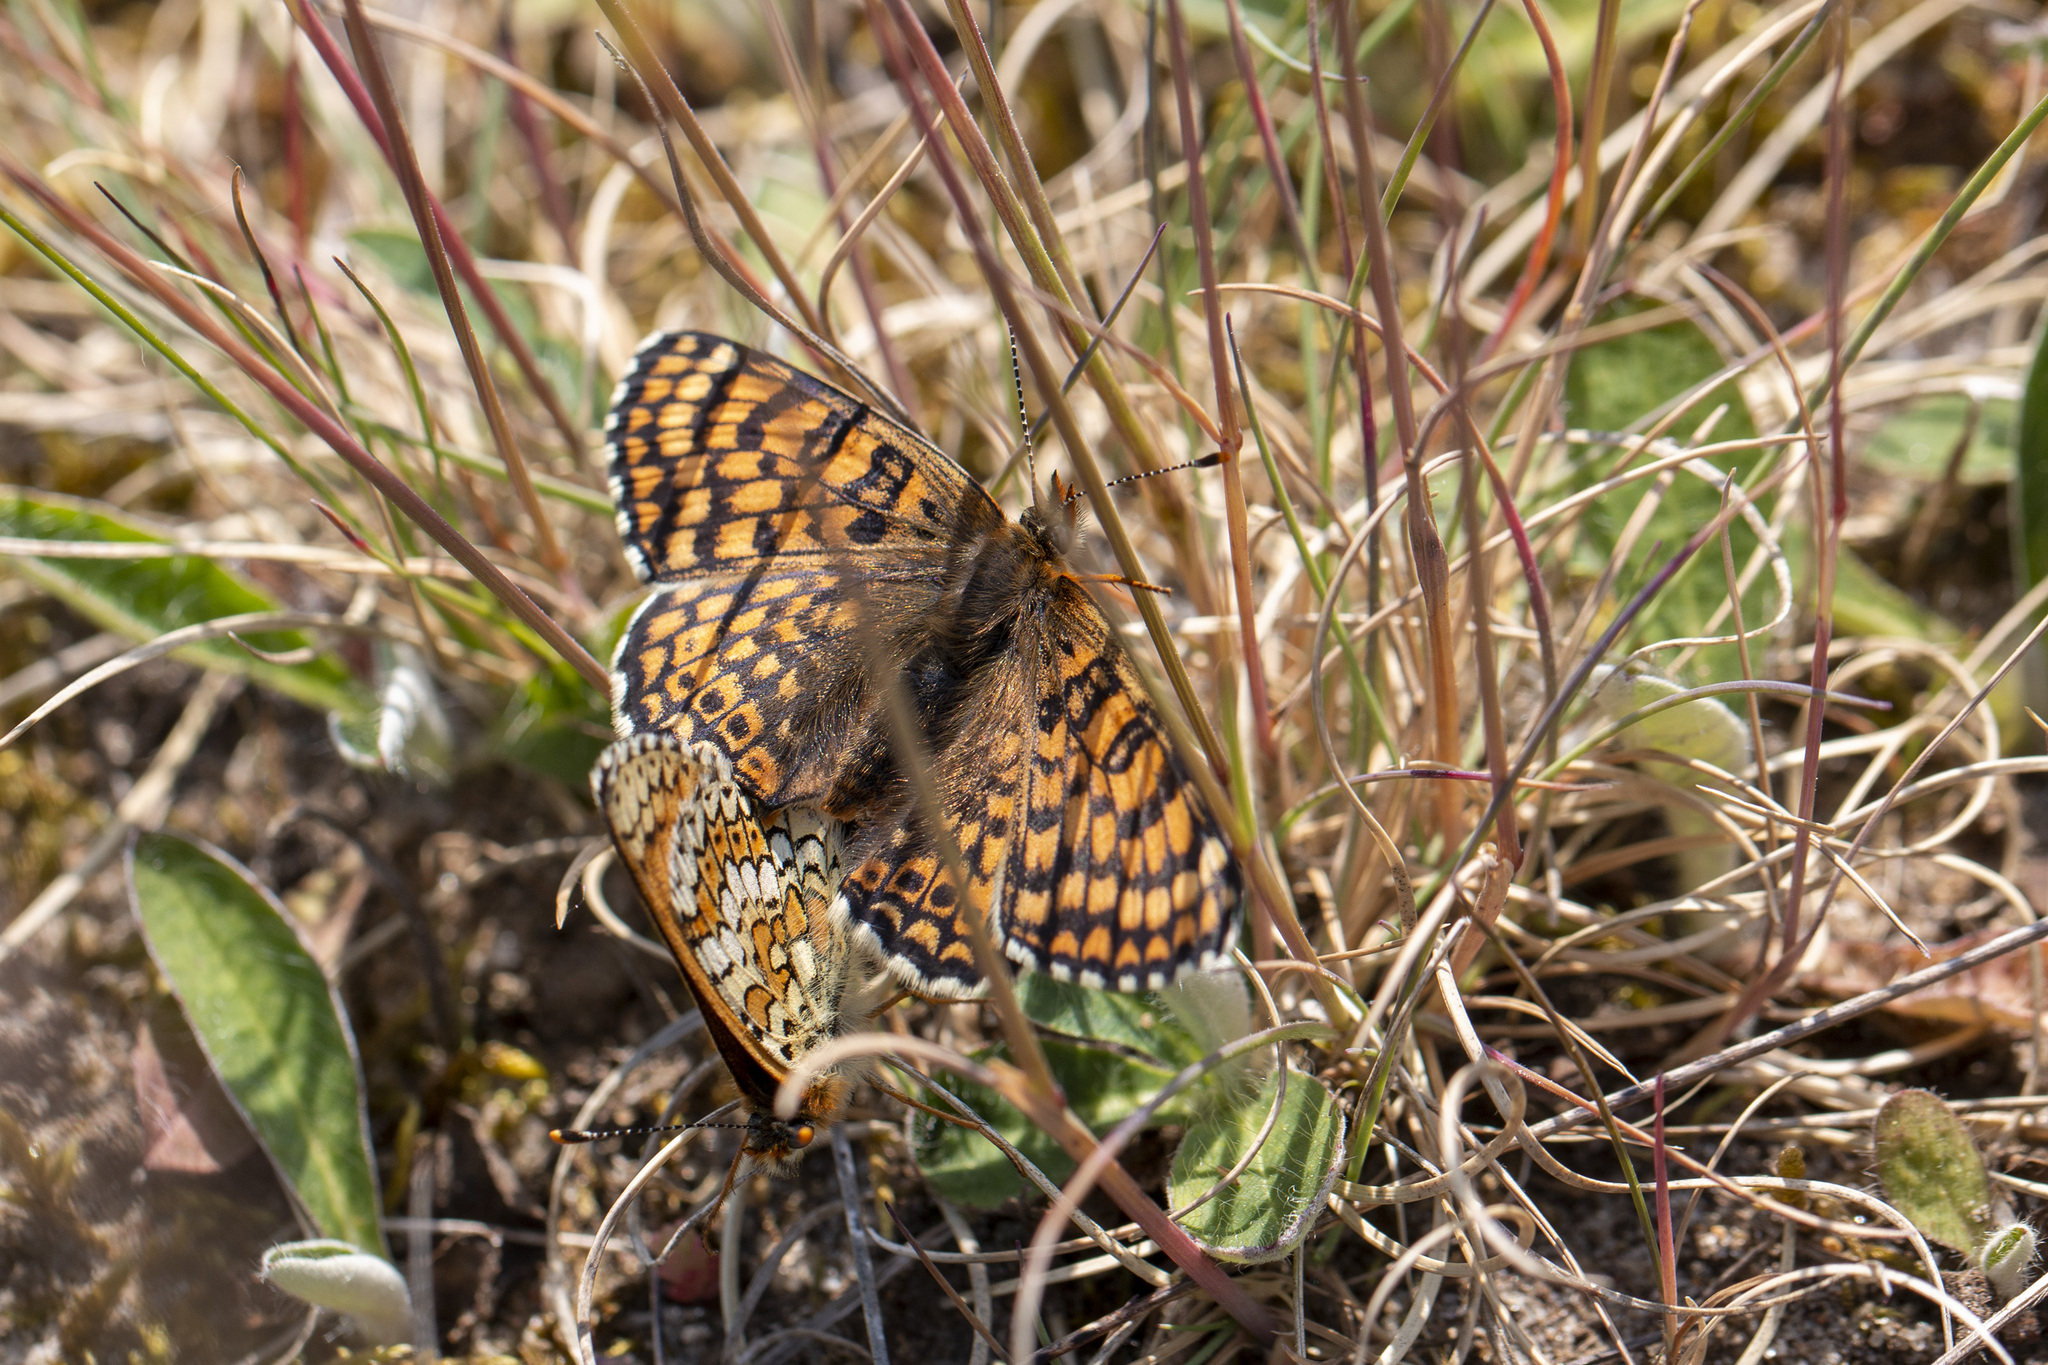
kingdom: Animalia
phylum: Arthropoda
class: Insecta
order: Lepidoptera
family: Nymphalidae
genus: Melitaea
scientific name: Melitaea cinxia
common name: Glanville fritillary
